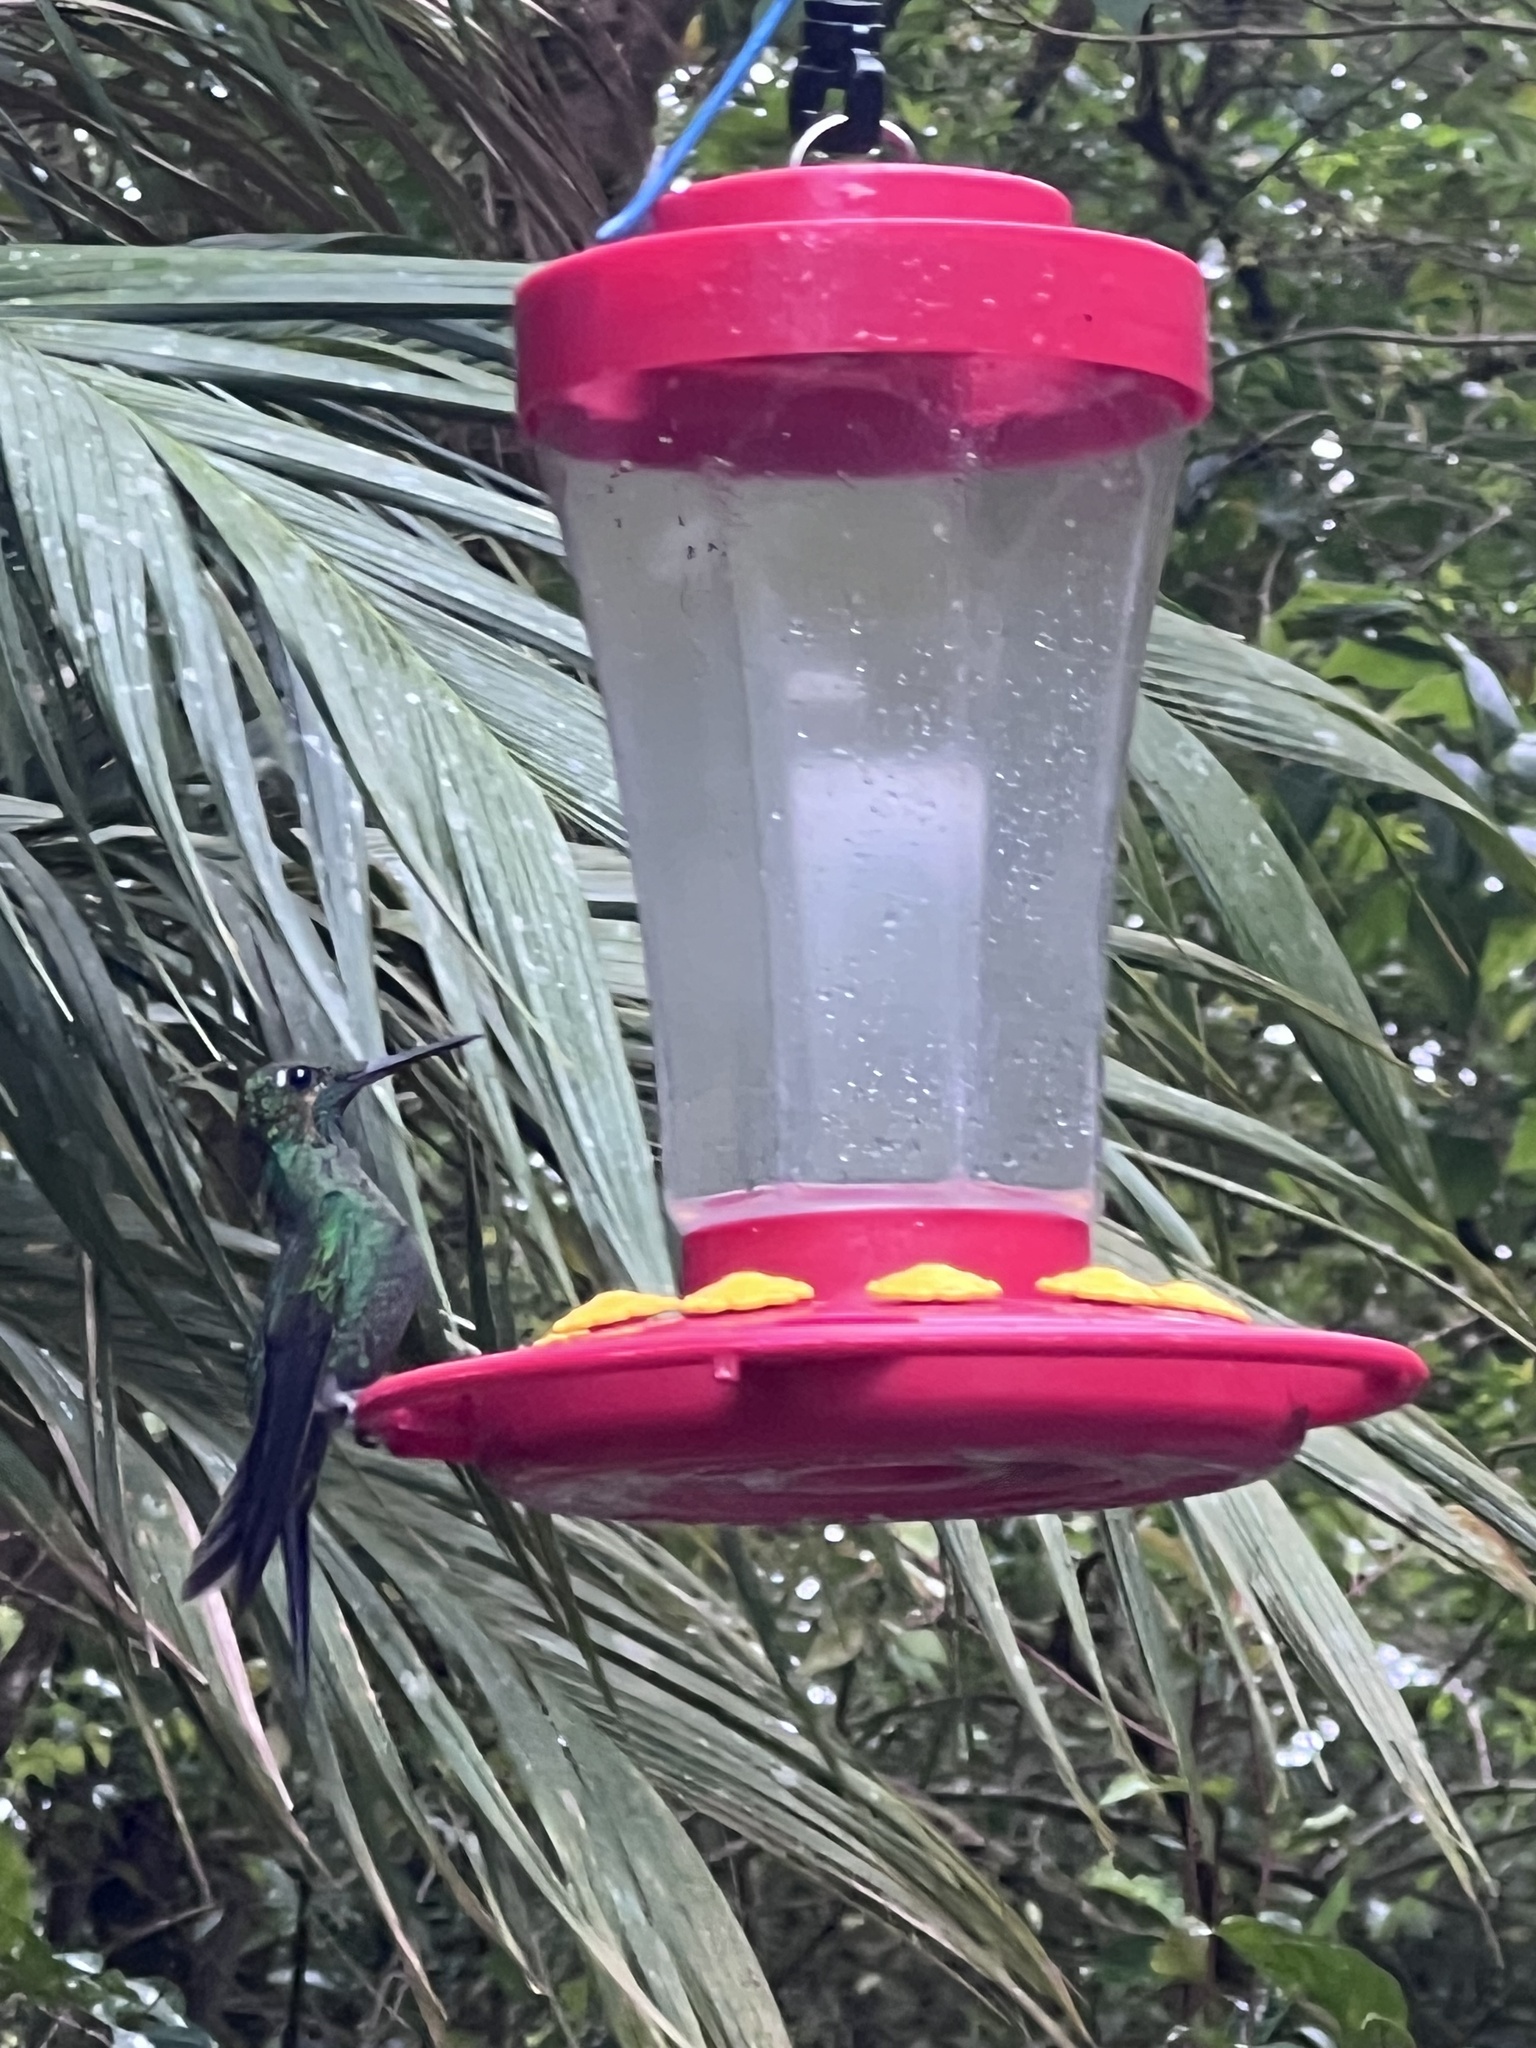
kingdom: Animalia
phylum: Chordata
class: Aves
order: Apodiformes
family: Trochilidae
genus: Heliodoxa
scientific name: Heliodoxa jacula
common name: Green-crowned brilliant
